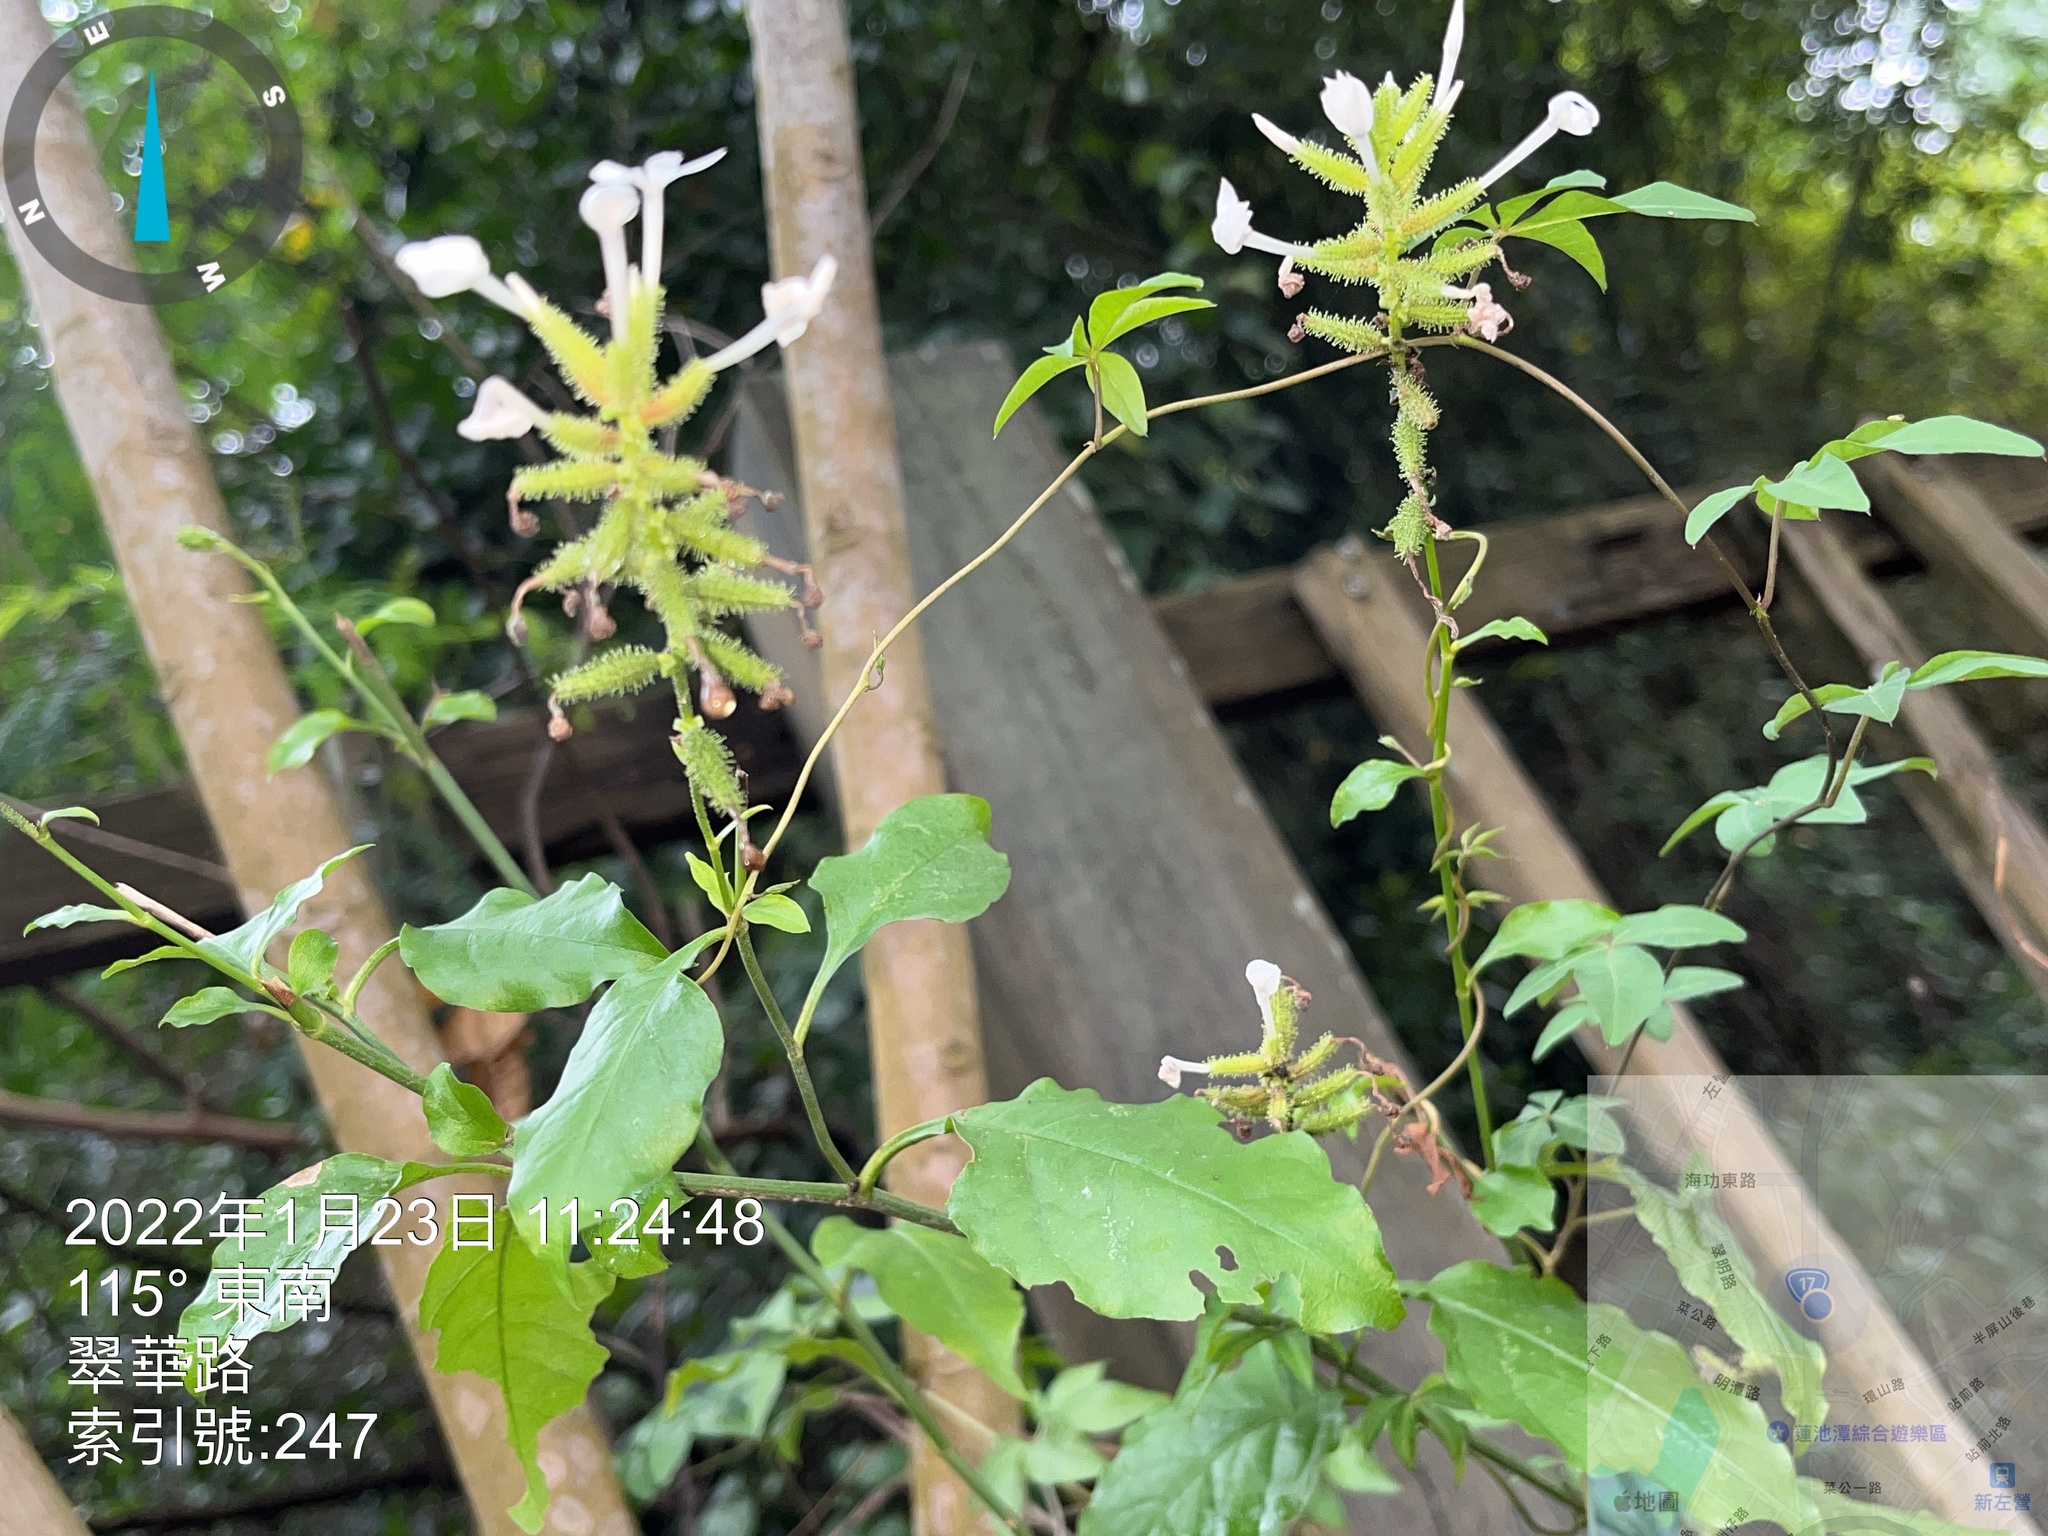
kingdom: Plantae
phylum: Tracheophyta
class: Magnoliopsida
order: Caryophyllales
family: Plumbaginaceae
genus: Plumbago
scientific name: Plumbago zeylanica
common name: Doctorbush
